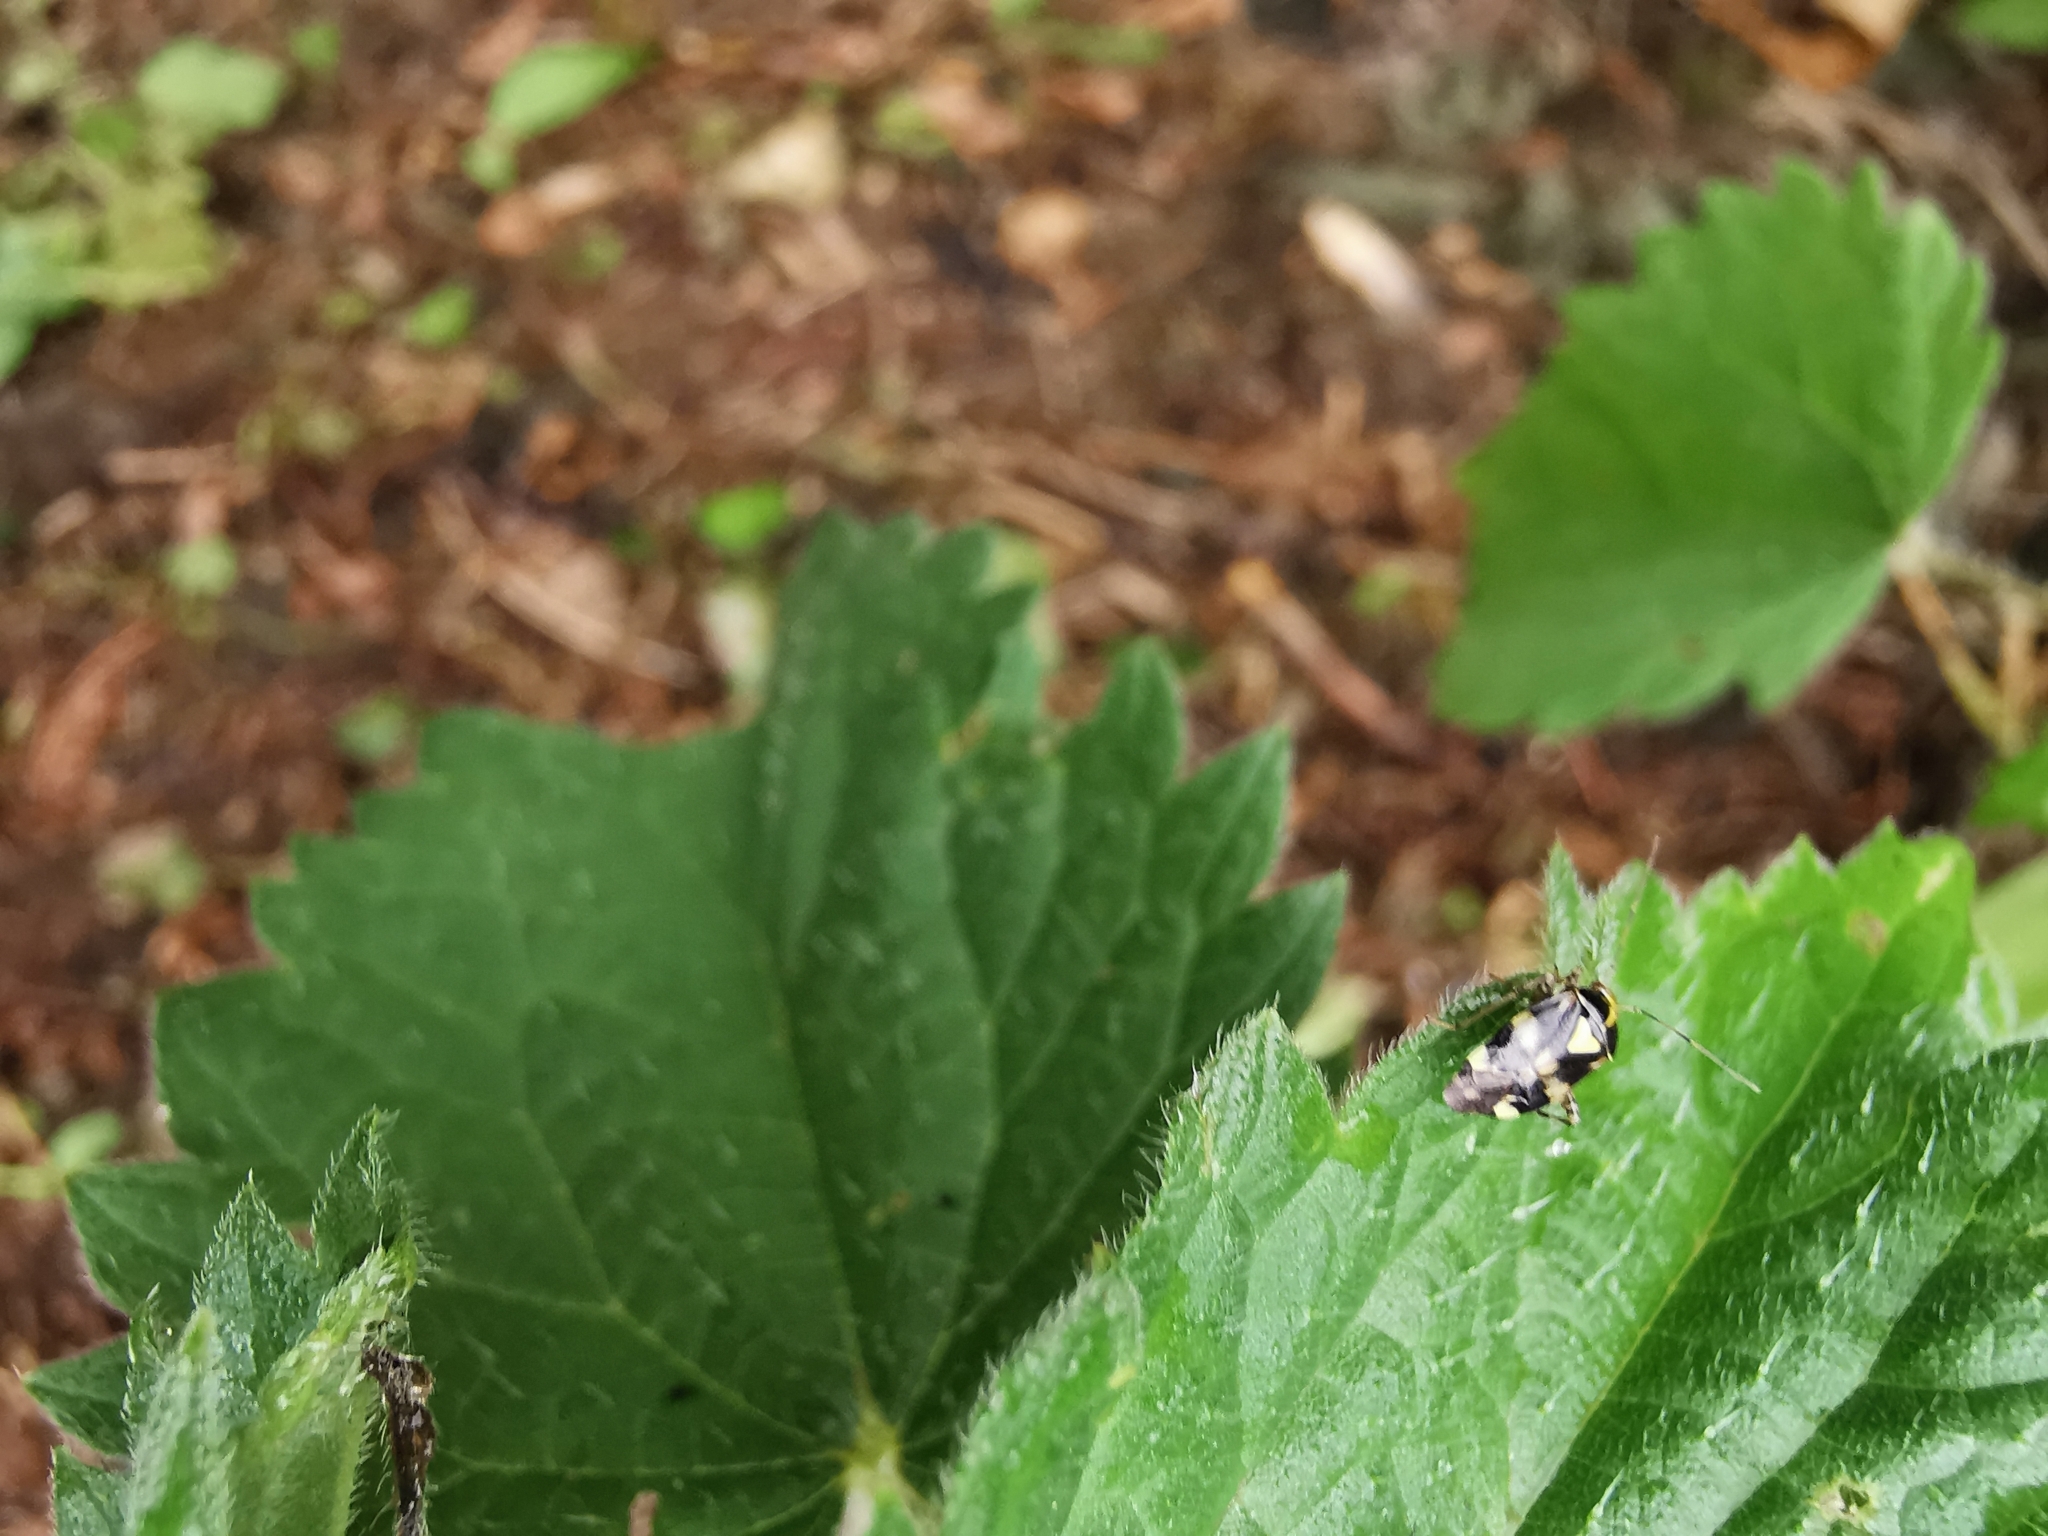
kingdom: Animalia
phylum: Arthropoda
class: Insecta
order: Hemiptera
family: Miridae
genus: Liocoris
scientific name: Liocoris tripustulatus
